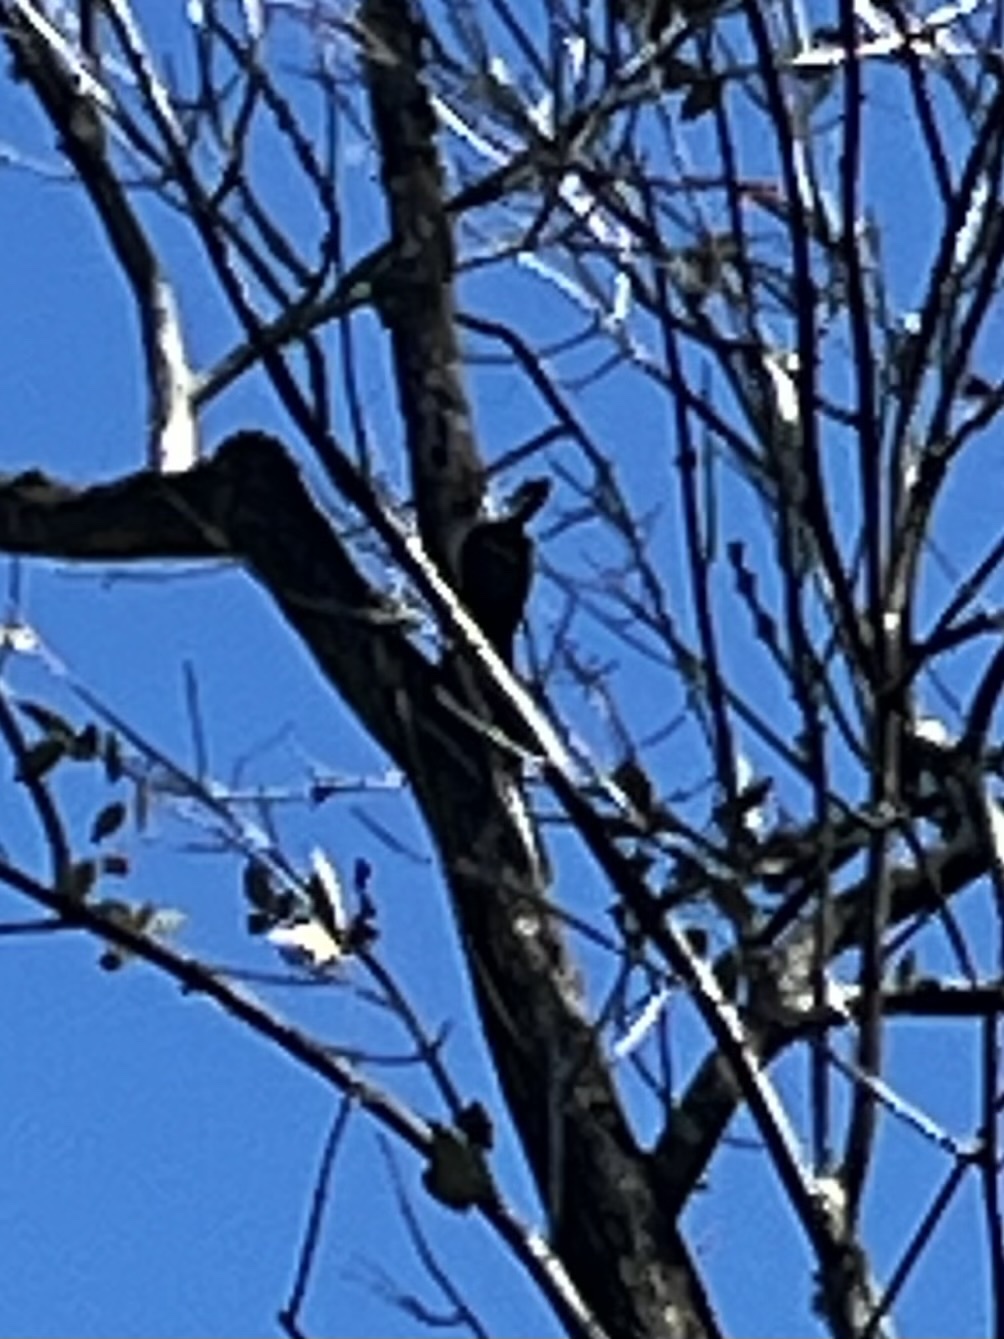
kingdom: Animalia
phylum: Chordata
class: Aves
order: Piciformes
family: Picidae
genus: Dryocopus
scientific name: Dryocopus pileatus
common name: Pileated woodpecker
